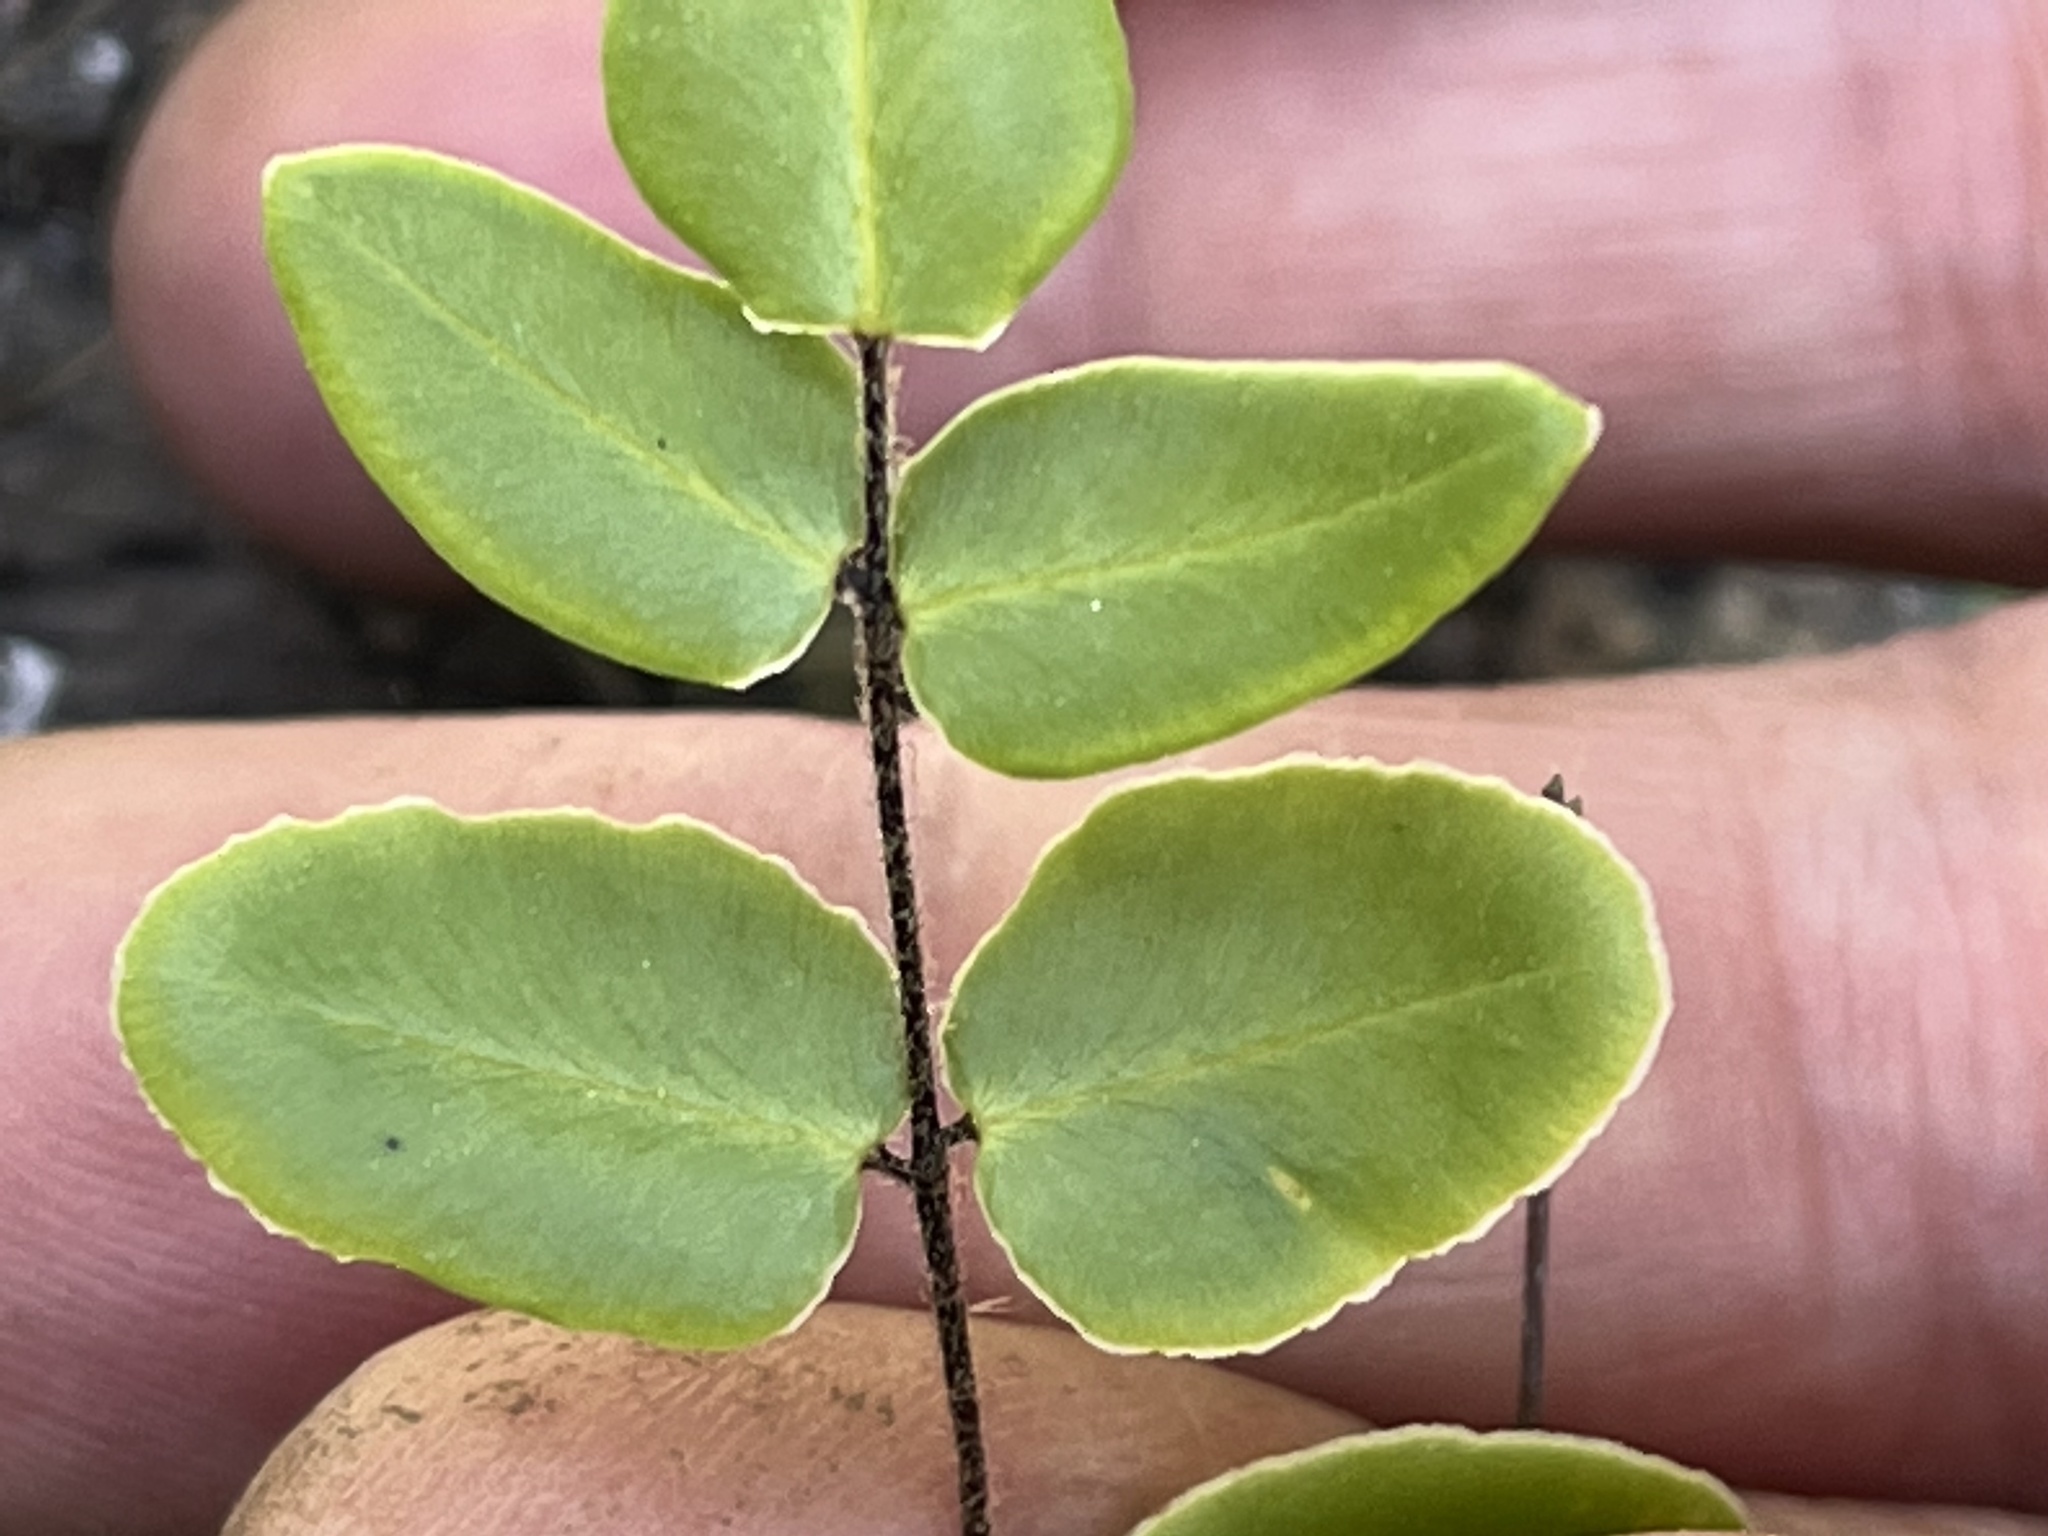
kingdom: Plantae
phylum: Tracheophyta
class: Polypodiopsida
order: Polypodiales
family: Pteridaceae
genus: Pellaea
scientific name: Pellaea atropurpurea
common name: Hairy cliffbrake
